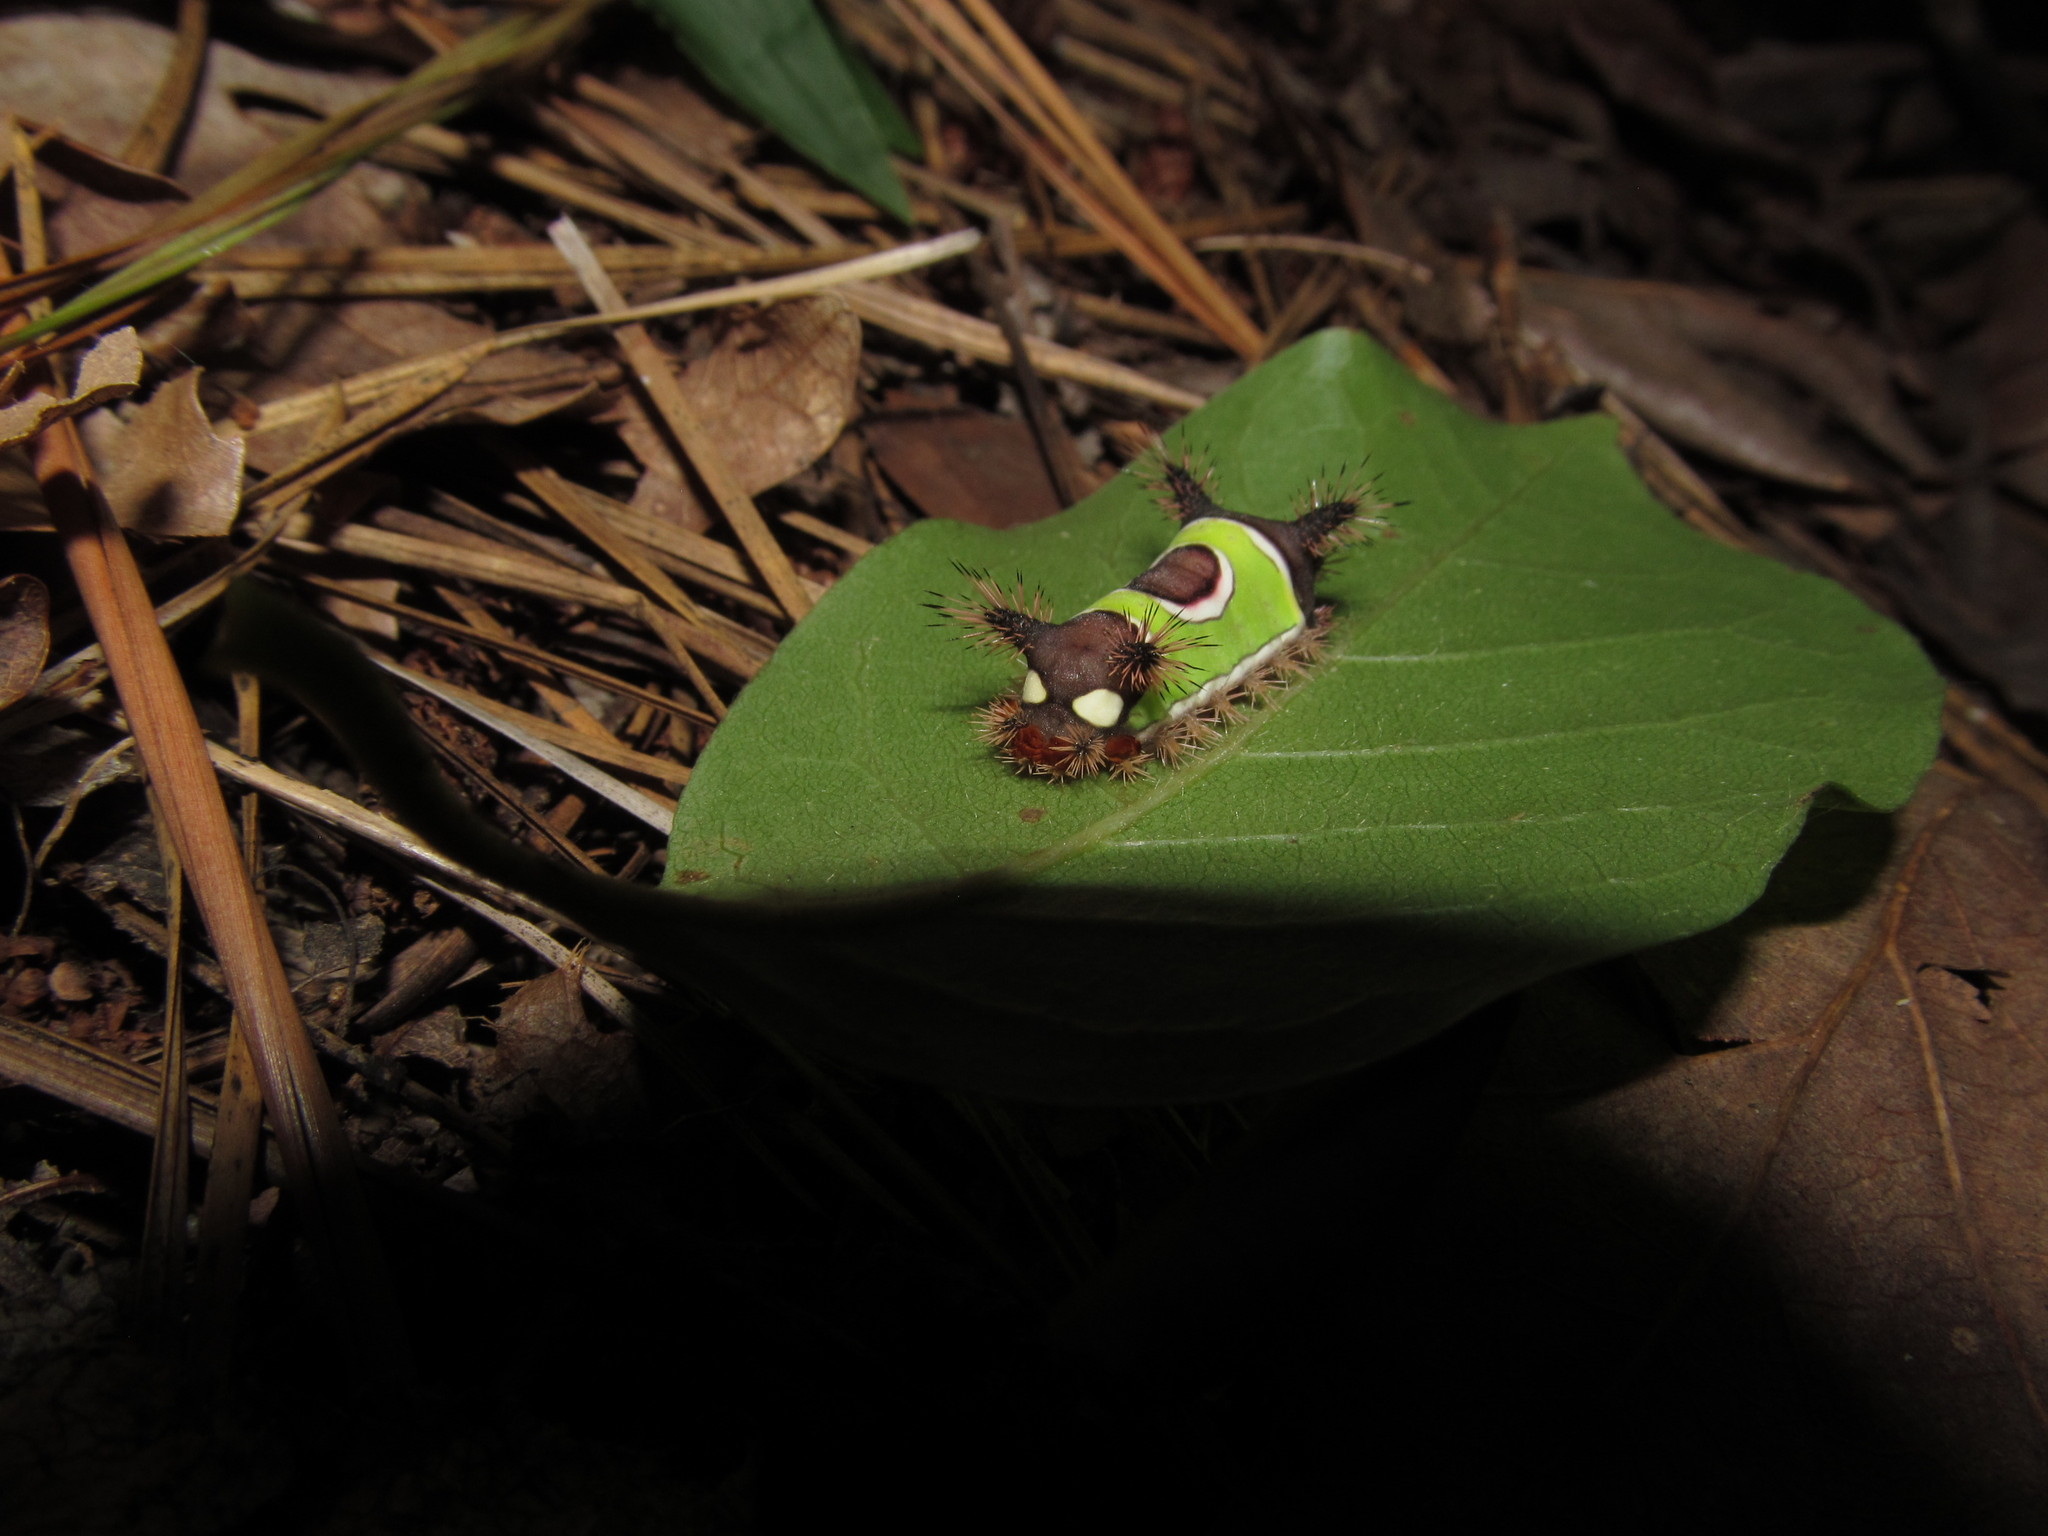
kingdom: Animalia
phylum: Arthropoda
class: Insecta
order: Lepidoptera
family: Limacodidae
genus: Acharia
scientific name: Acharia stimulea
